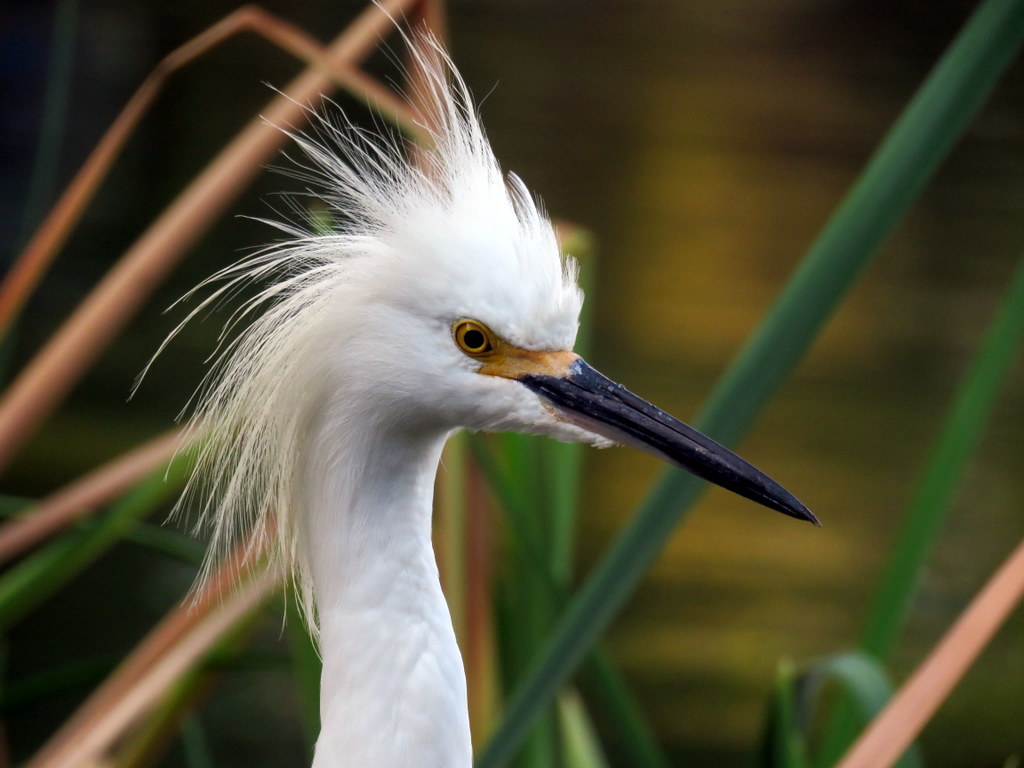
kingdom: Animalia
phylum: Chordata
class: Aves
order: Pelecaniformes
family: Ardeidae
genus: Egretta
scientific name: Egretta thula
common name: Snowy egret
